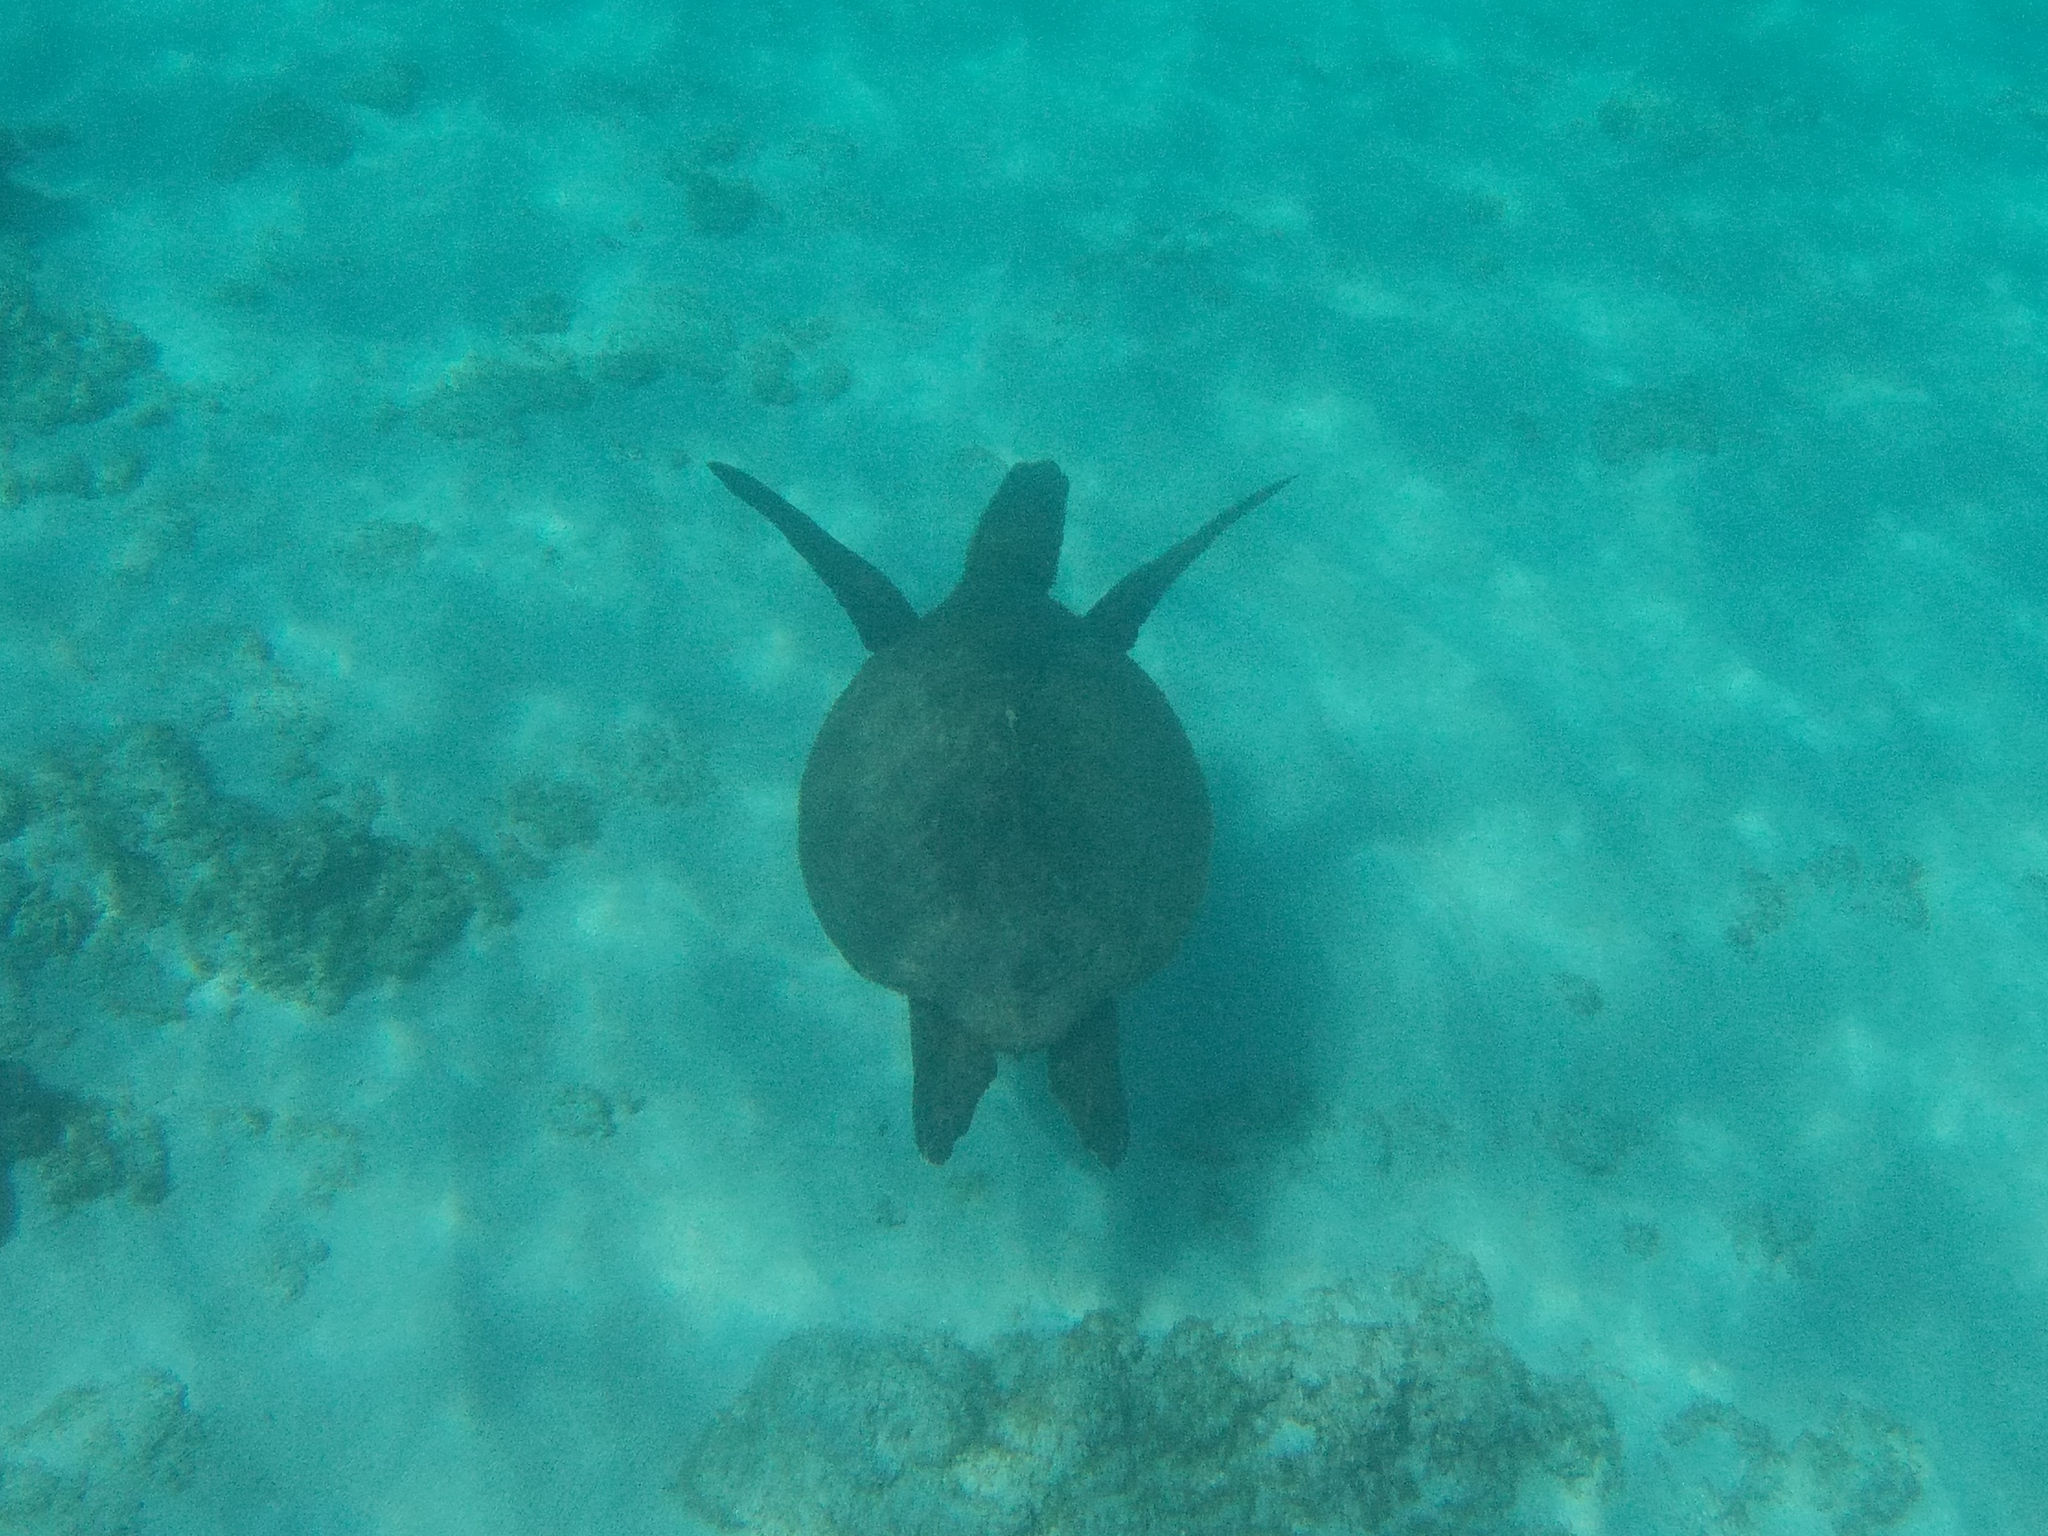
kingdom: Animalia
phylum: Chordata
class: Testudines
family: Cheloniidae
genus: Chelonia
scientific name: Chelonia mydas
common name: Green turtle
